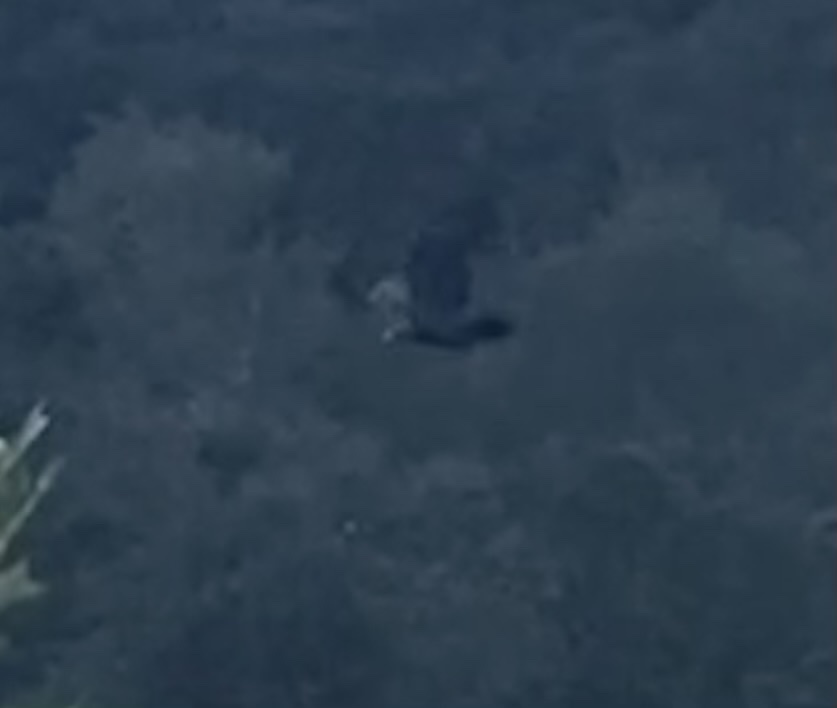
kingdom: Animalia
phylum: Chordata
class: Aves
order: Accipitriformes
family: Accipitridae
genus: Aquila
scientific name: Aquila chrysaetos
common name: Golden eagle
